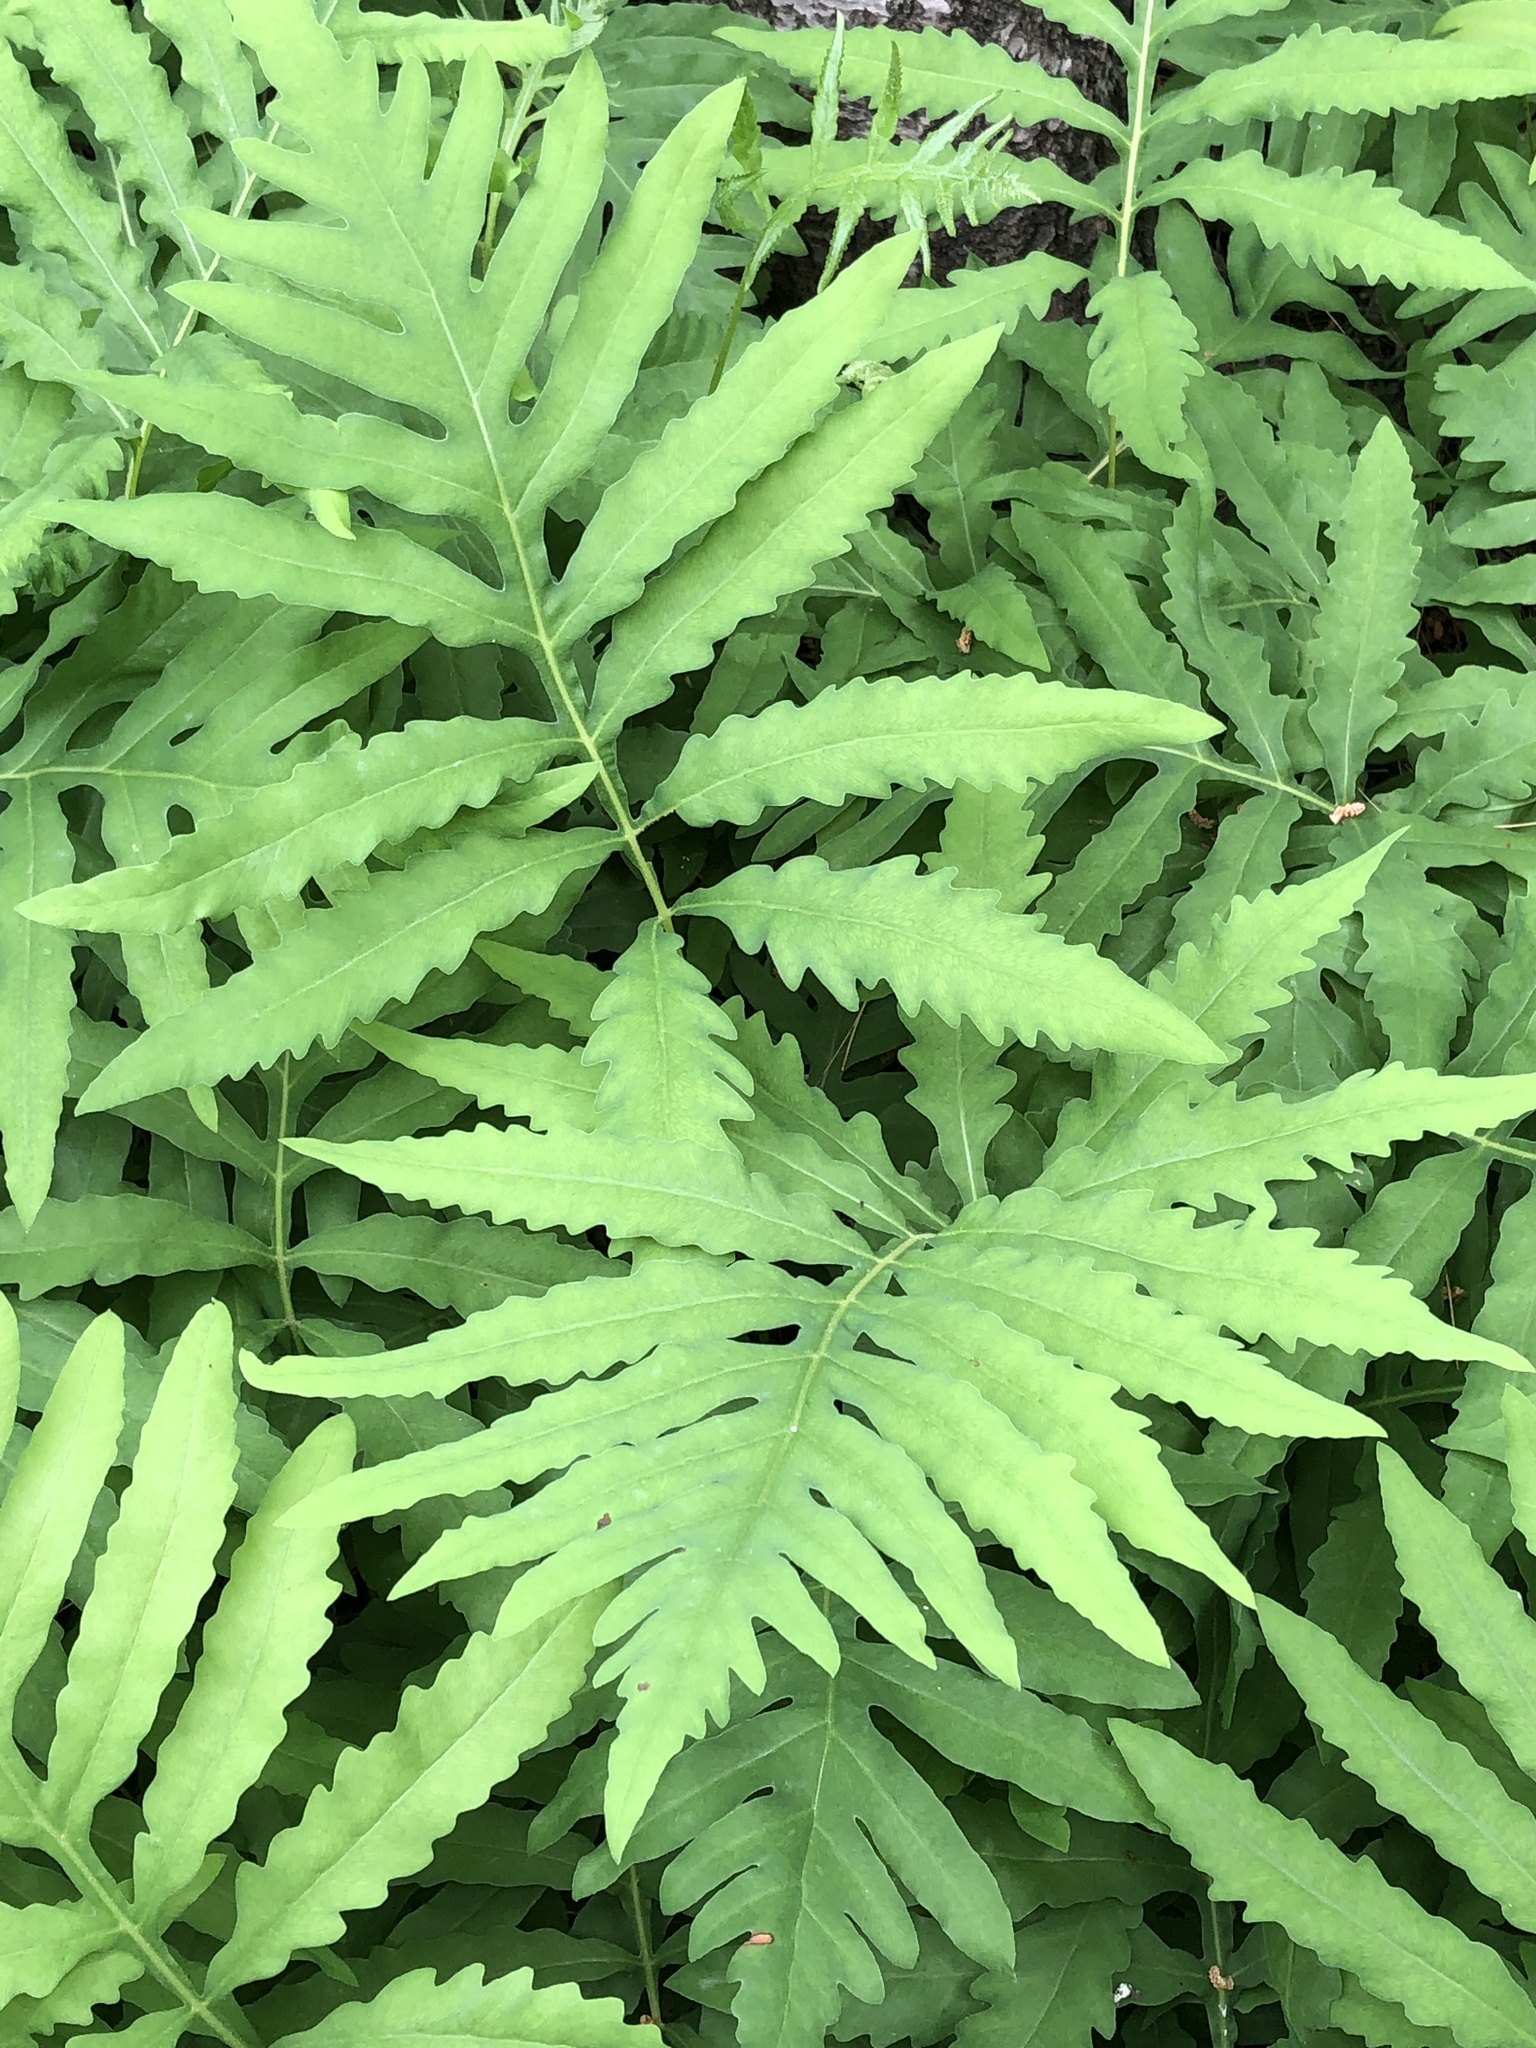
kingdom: Plantae
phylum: Tracheophyta
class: Polypodiopsida
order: Polypodiales
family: Onocleaceae
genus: Onoclea
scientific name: Onoclea sensibilis
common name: Sensitive fern
